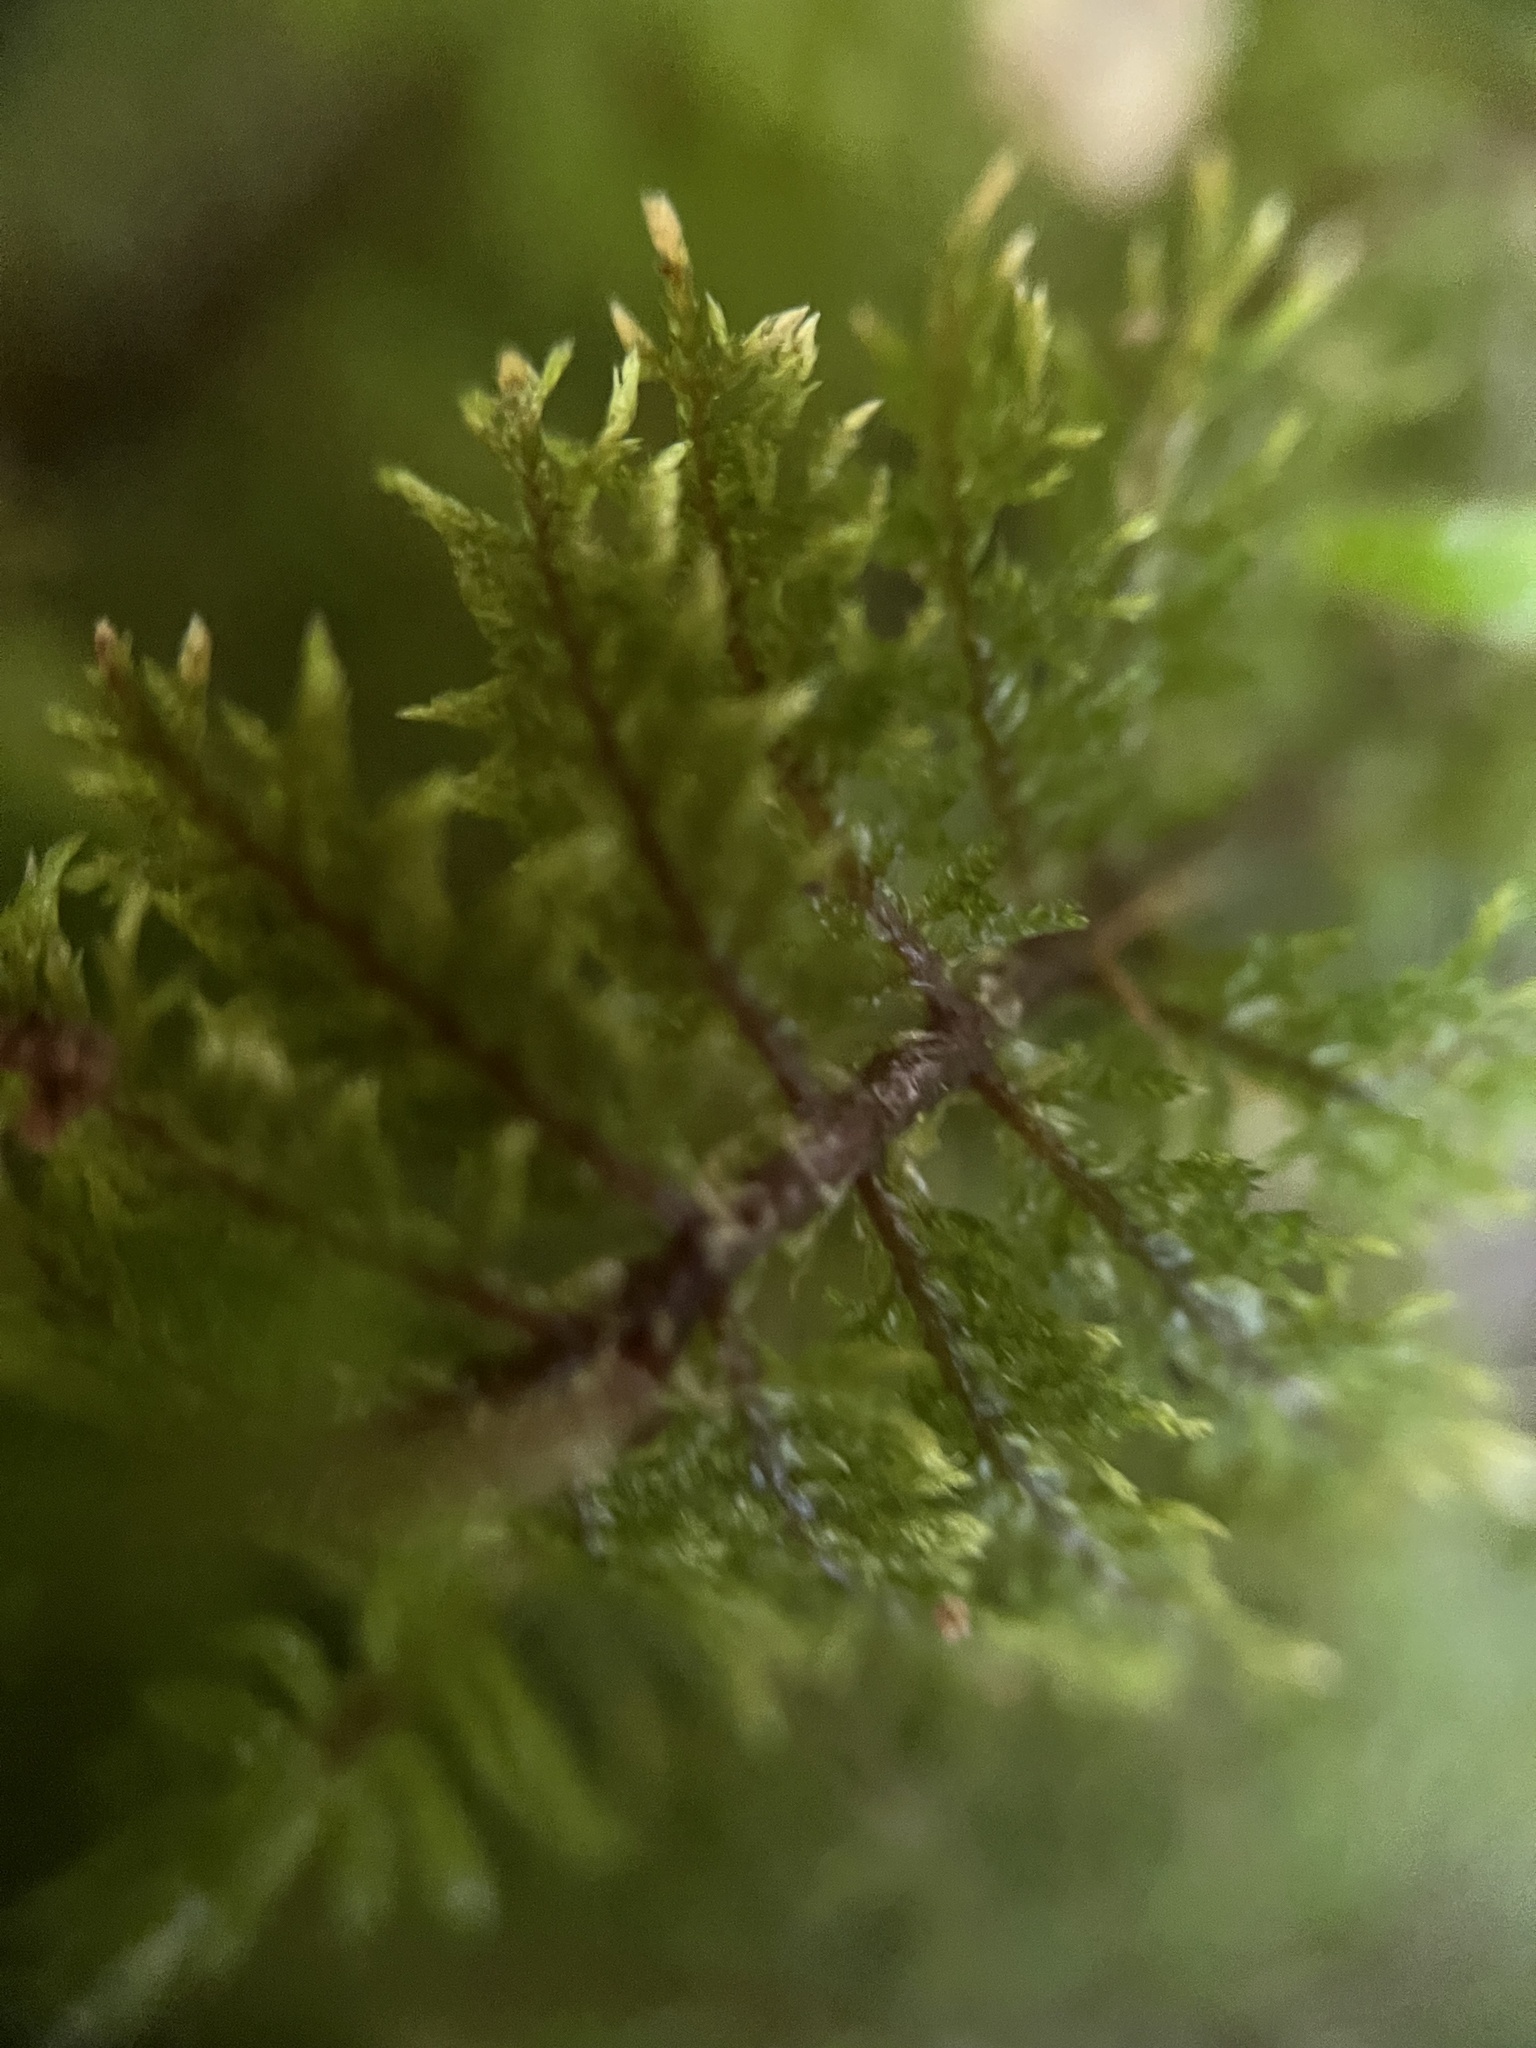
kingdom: Plantae
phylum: Bryophyta
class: Bryopsida
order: Hypnales
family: Hylocomiaceae
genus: Hylocomium
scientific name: Hylocomium splendens
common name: Stairstep moss
